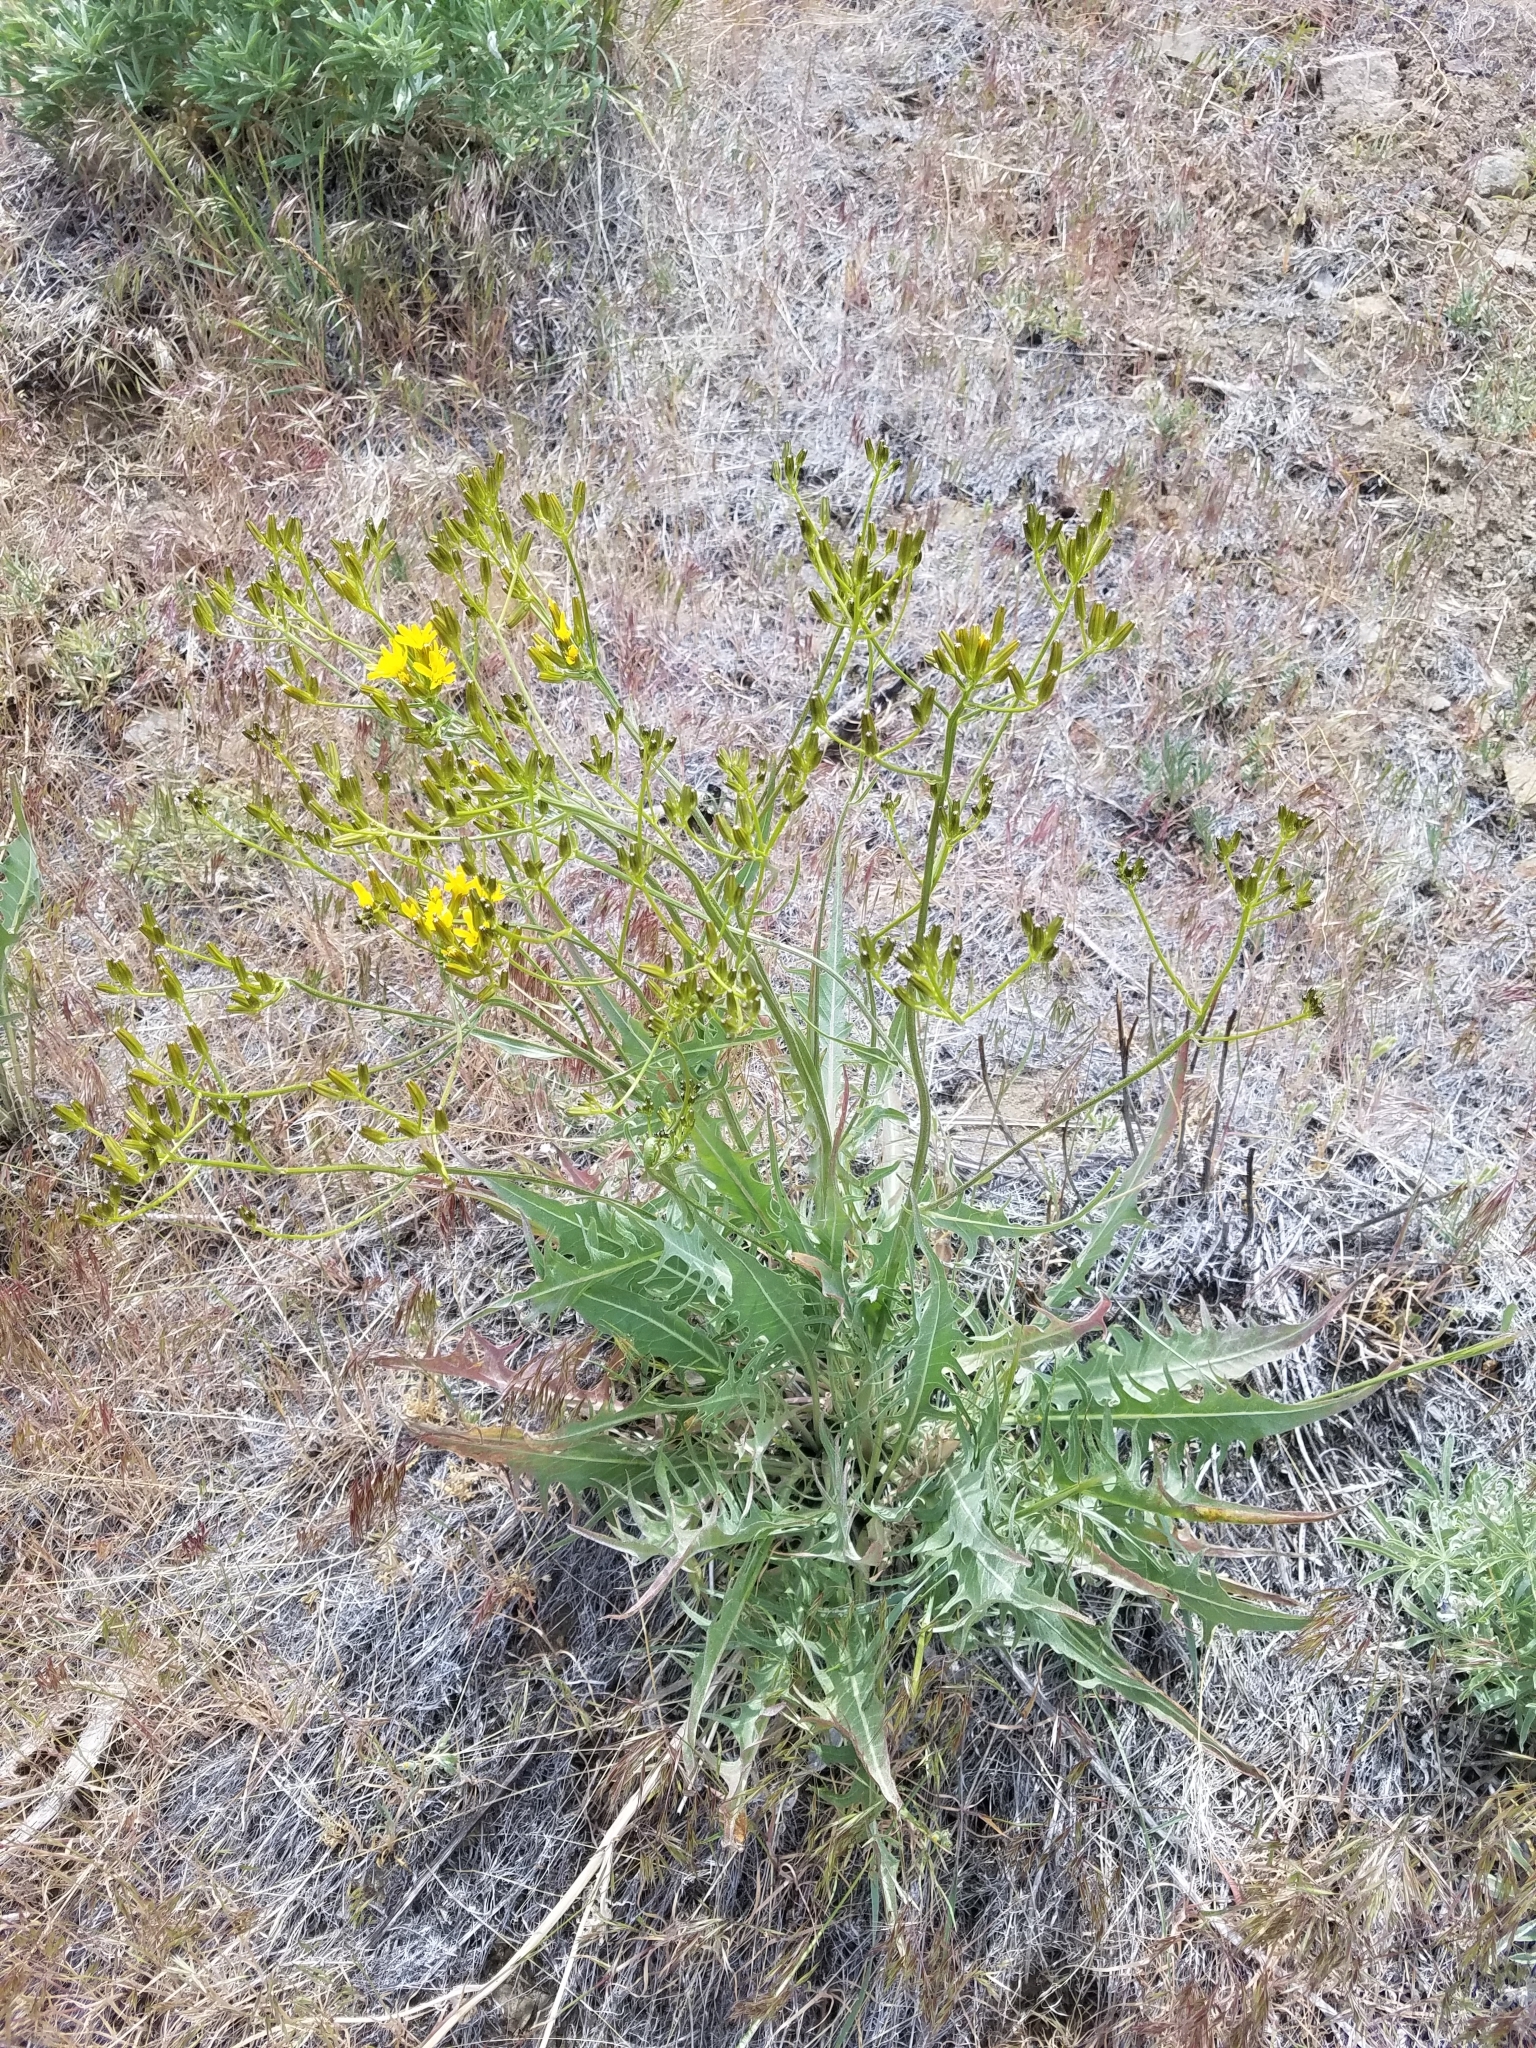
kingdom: Plantae
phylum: Tracheophyta
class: Magnoliopsida
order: Asterales
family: Asteraceae
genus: Crepis
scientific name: Crepis acuminata
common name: Longleaf hawk's-beard
